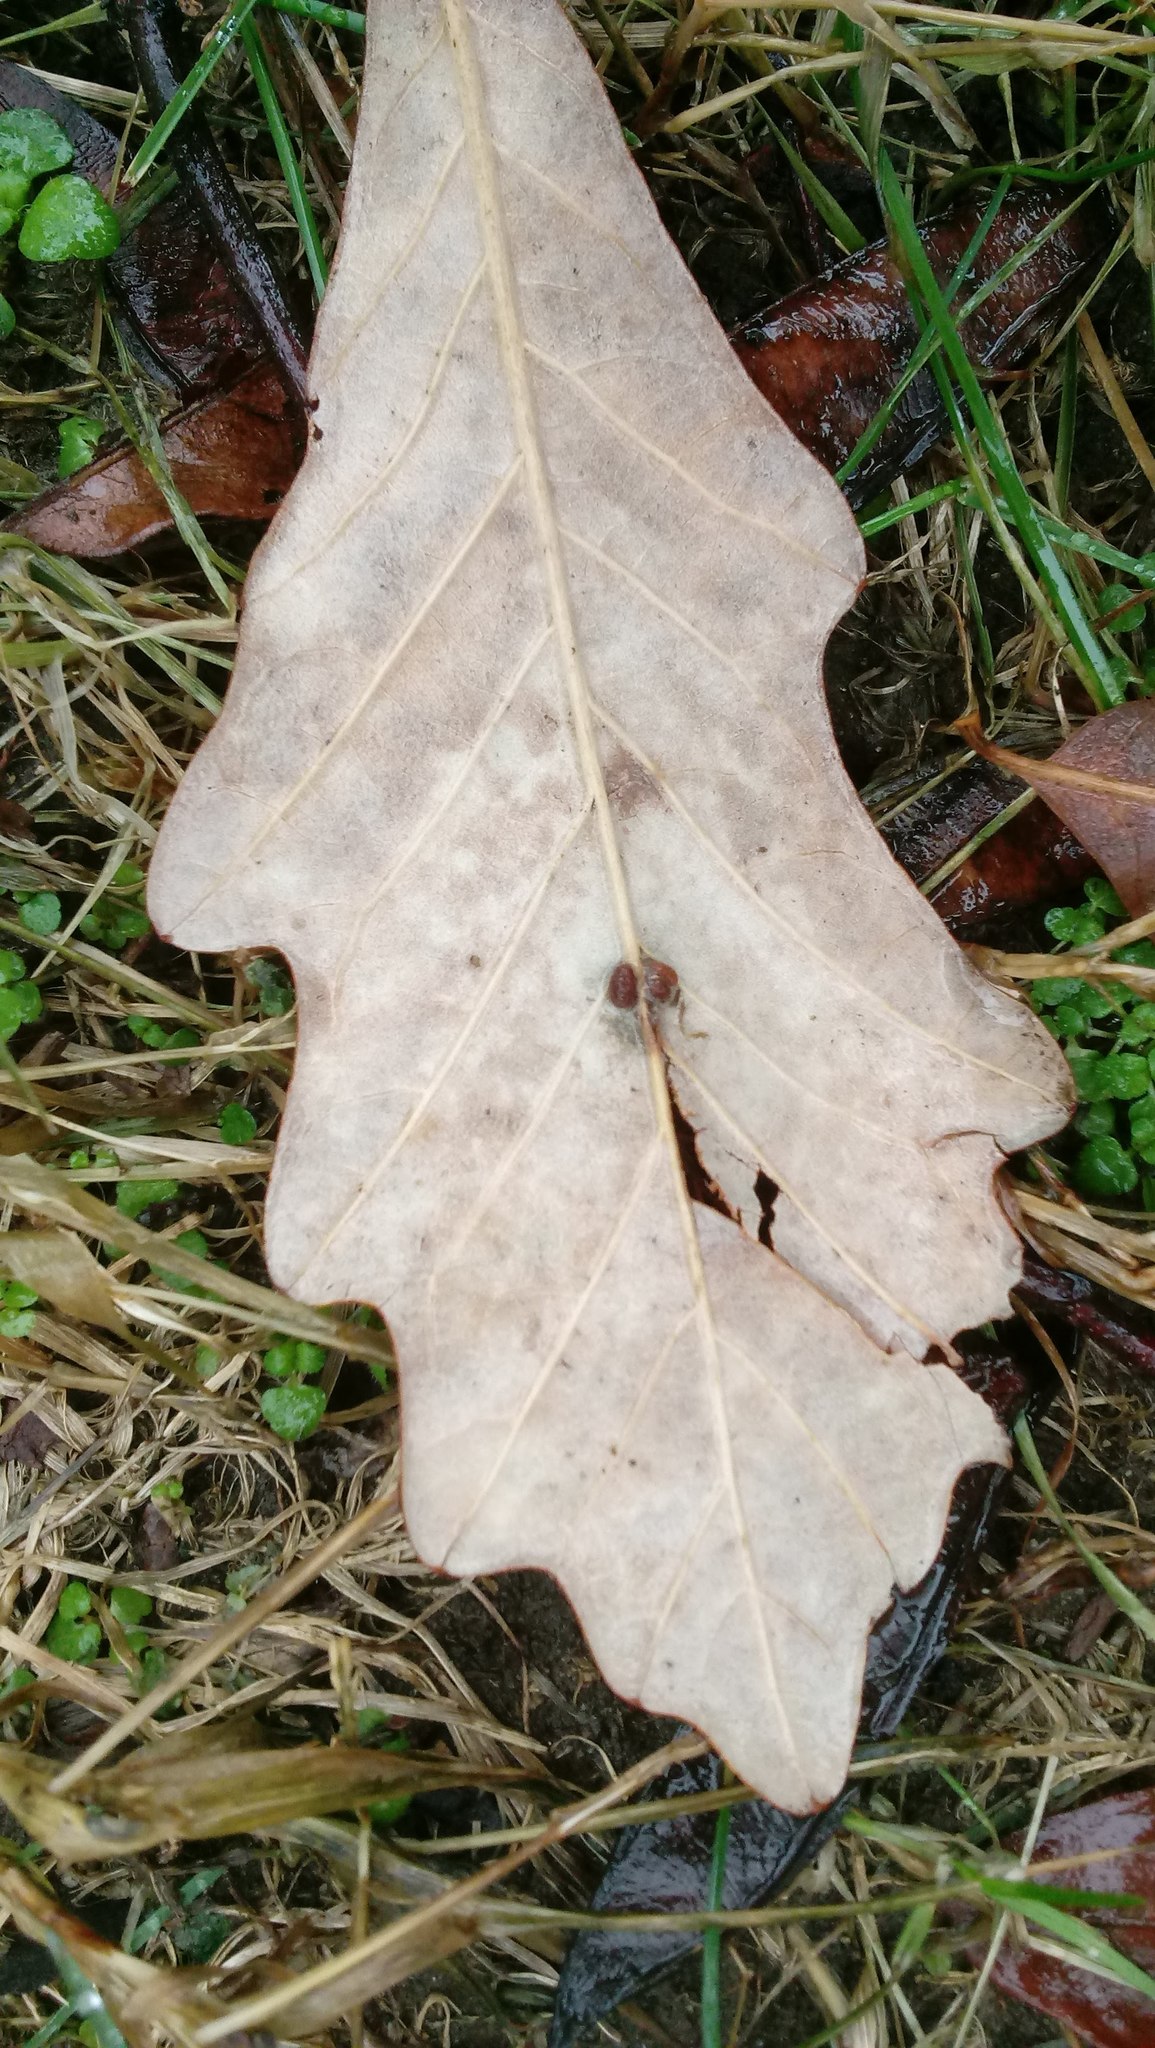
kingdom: Animalia
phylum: Arthropoda
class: Insecta
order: Hymenoptera
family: Cynipidae
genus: Andricus
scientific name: Andricus Druon ignotum
